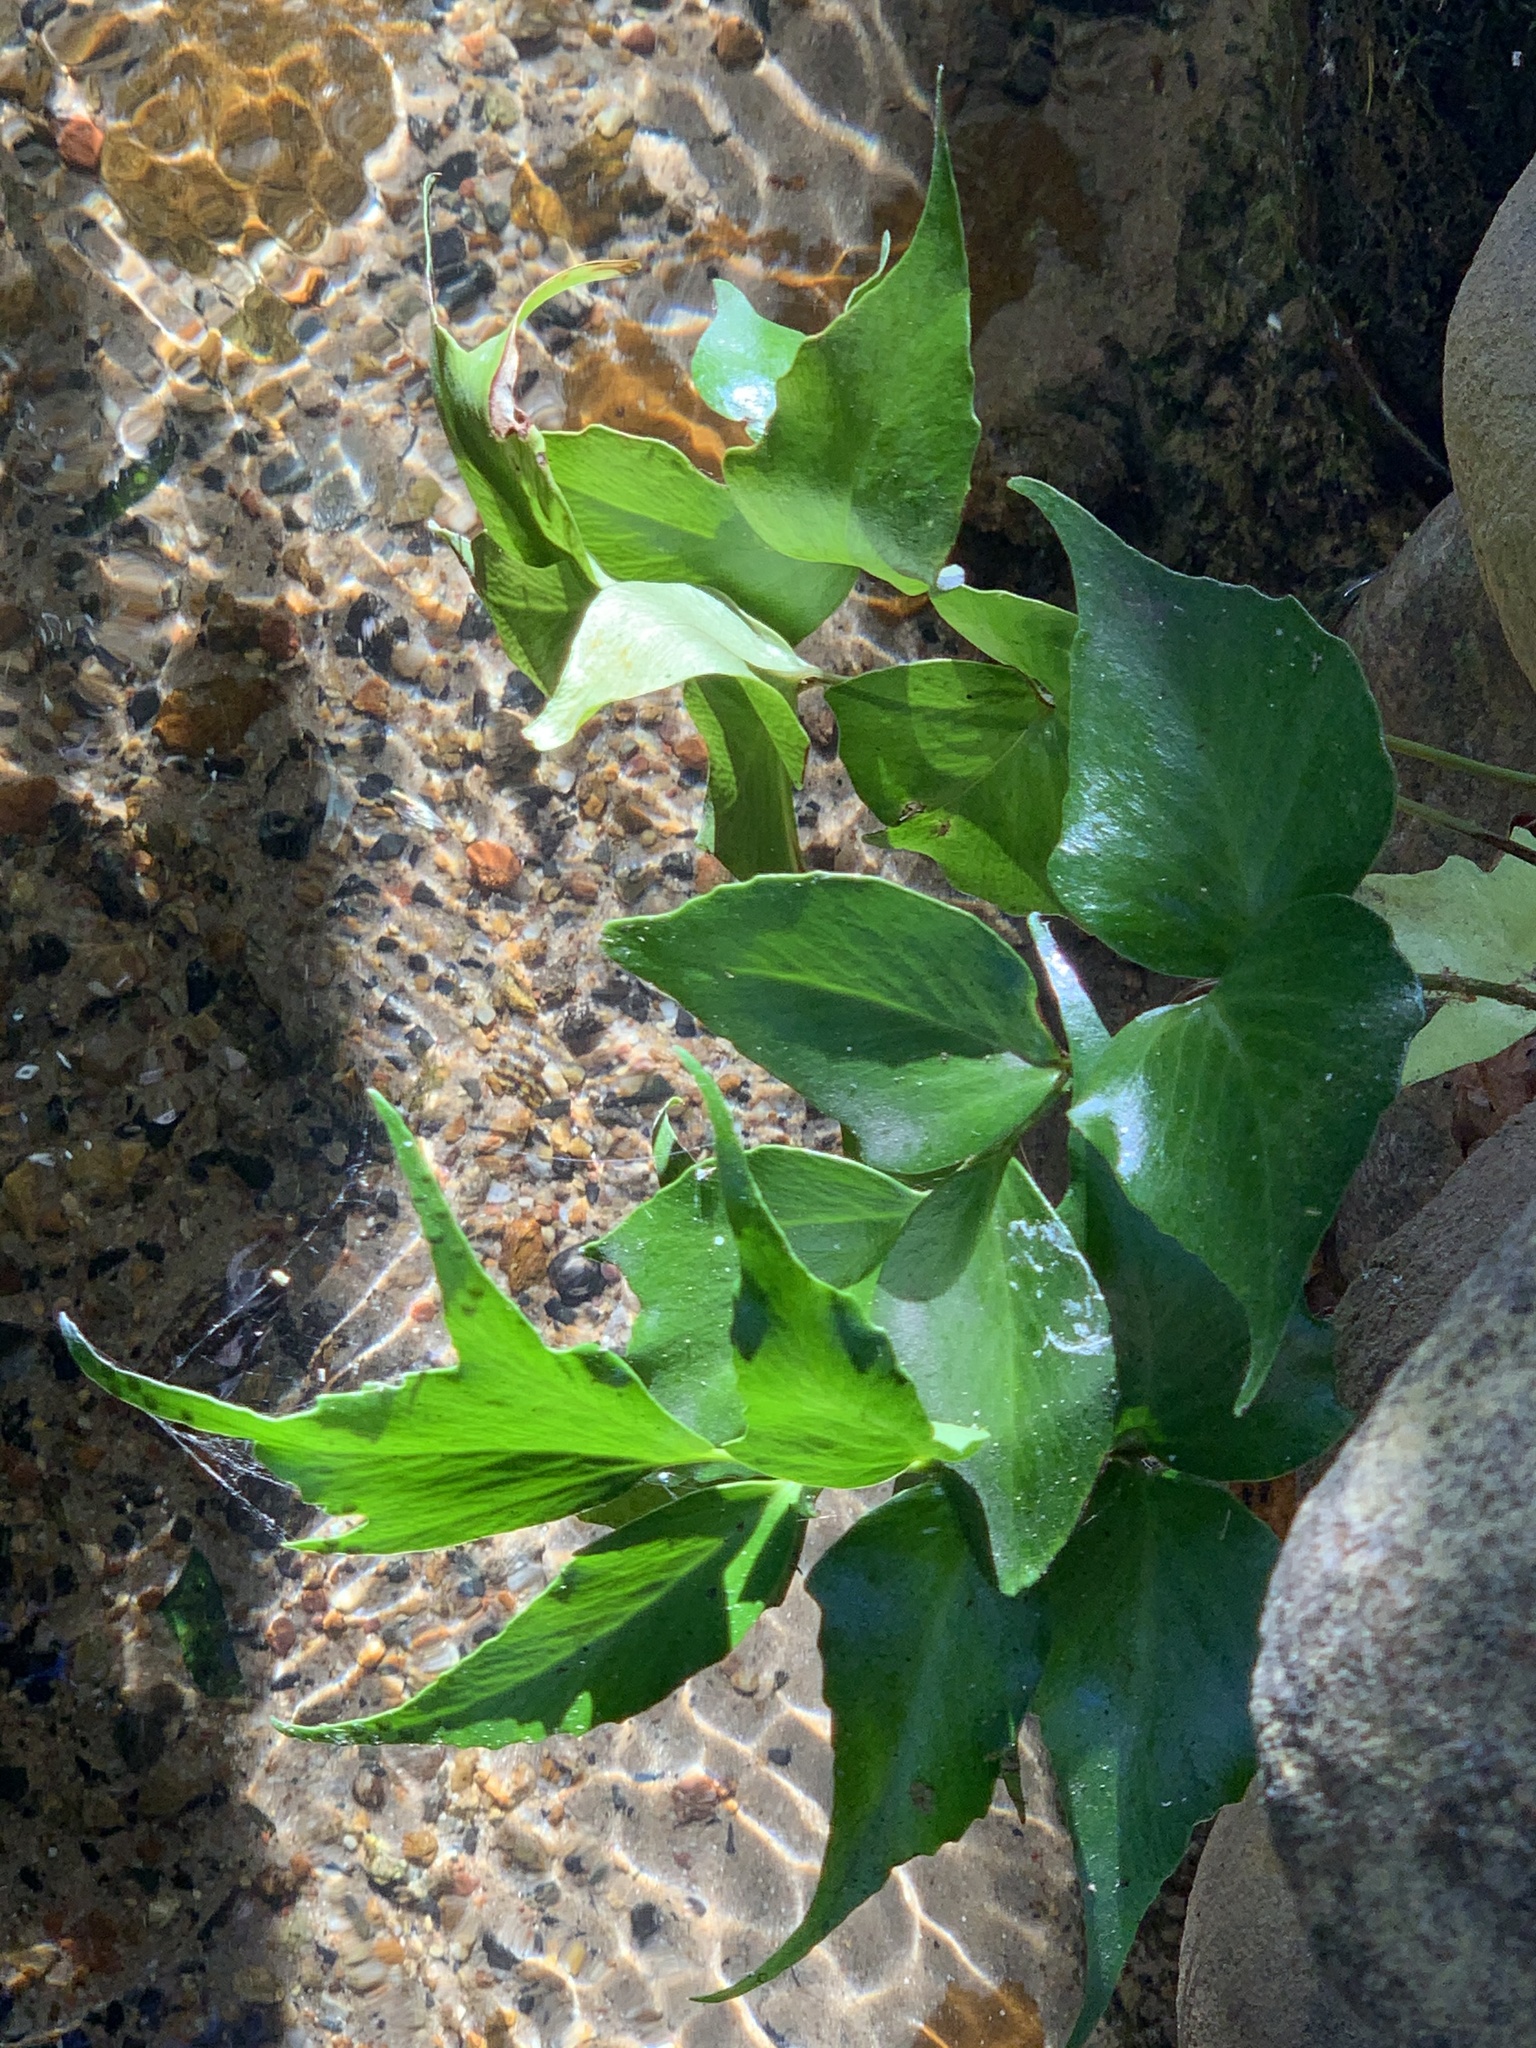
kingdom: Plantae
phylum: Tracheophyta
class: Polypodiopsida
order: Polypodiales
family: Dryopteridaceae
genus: Cyrtomium
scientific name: Cyrtomium falcatum
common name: House holly-fern
